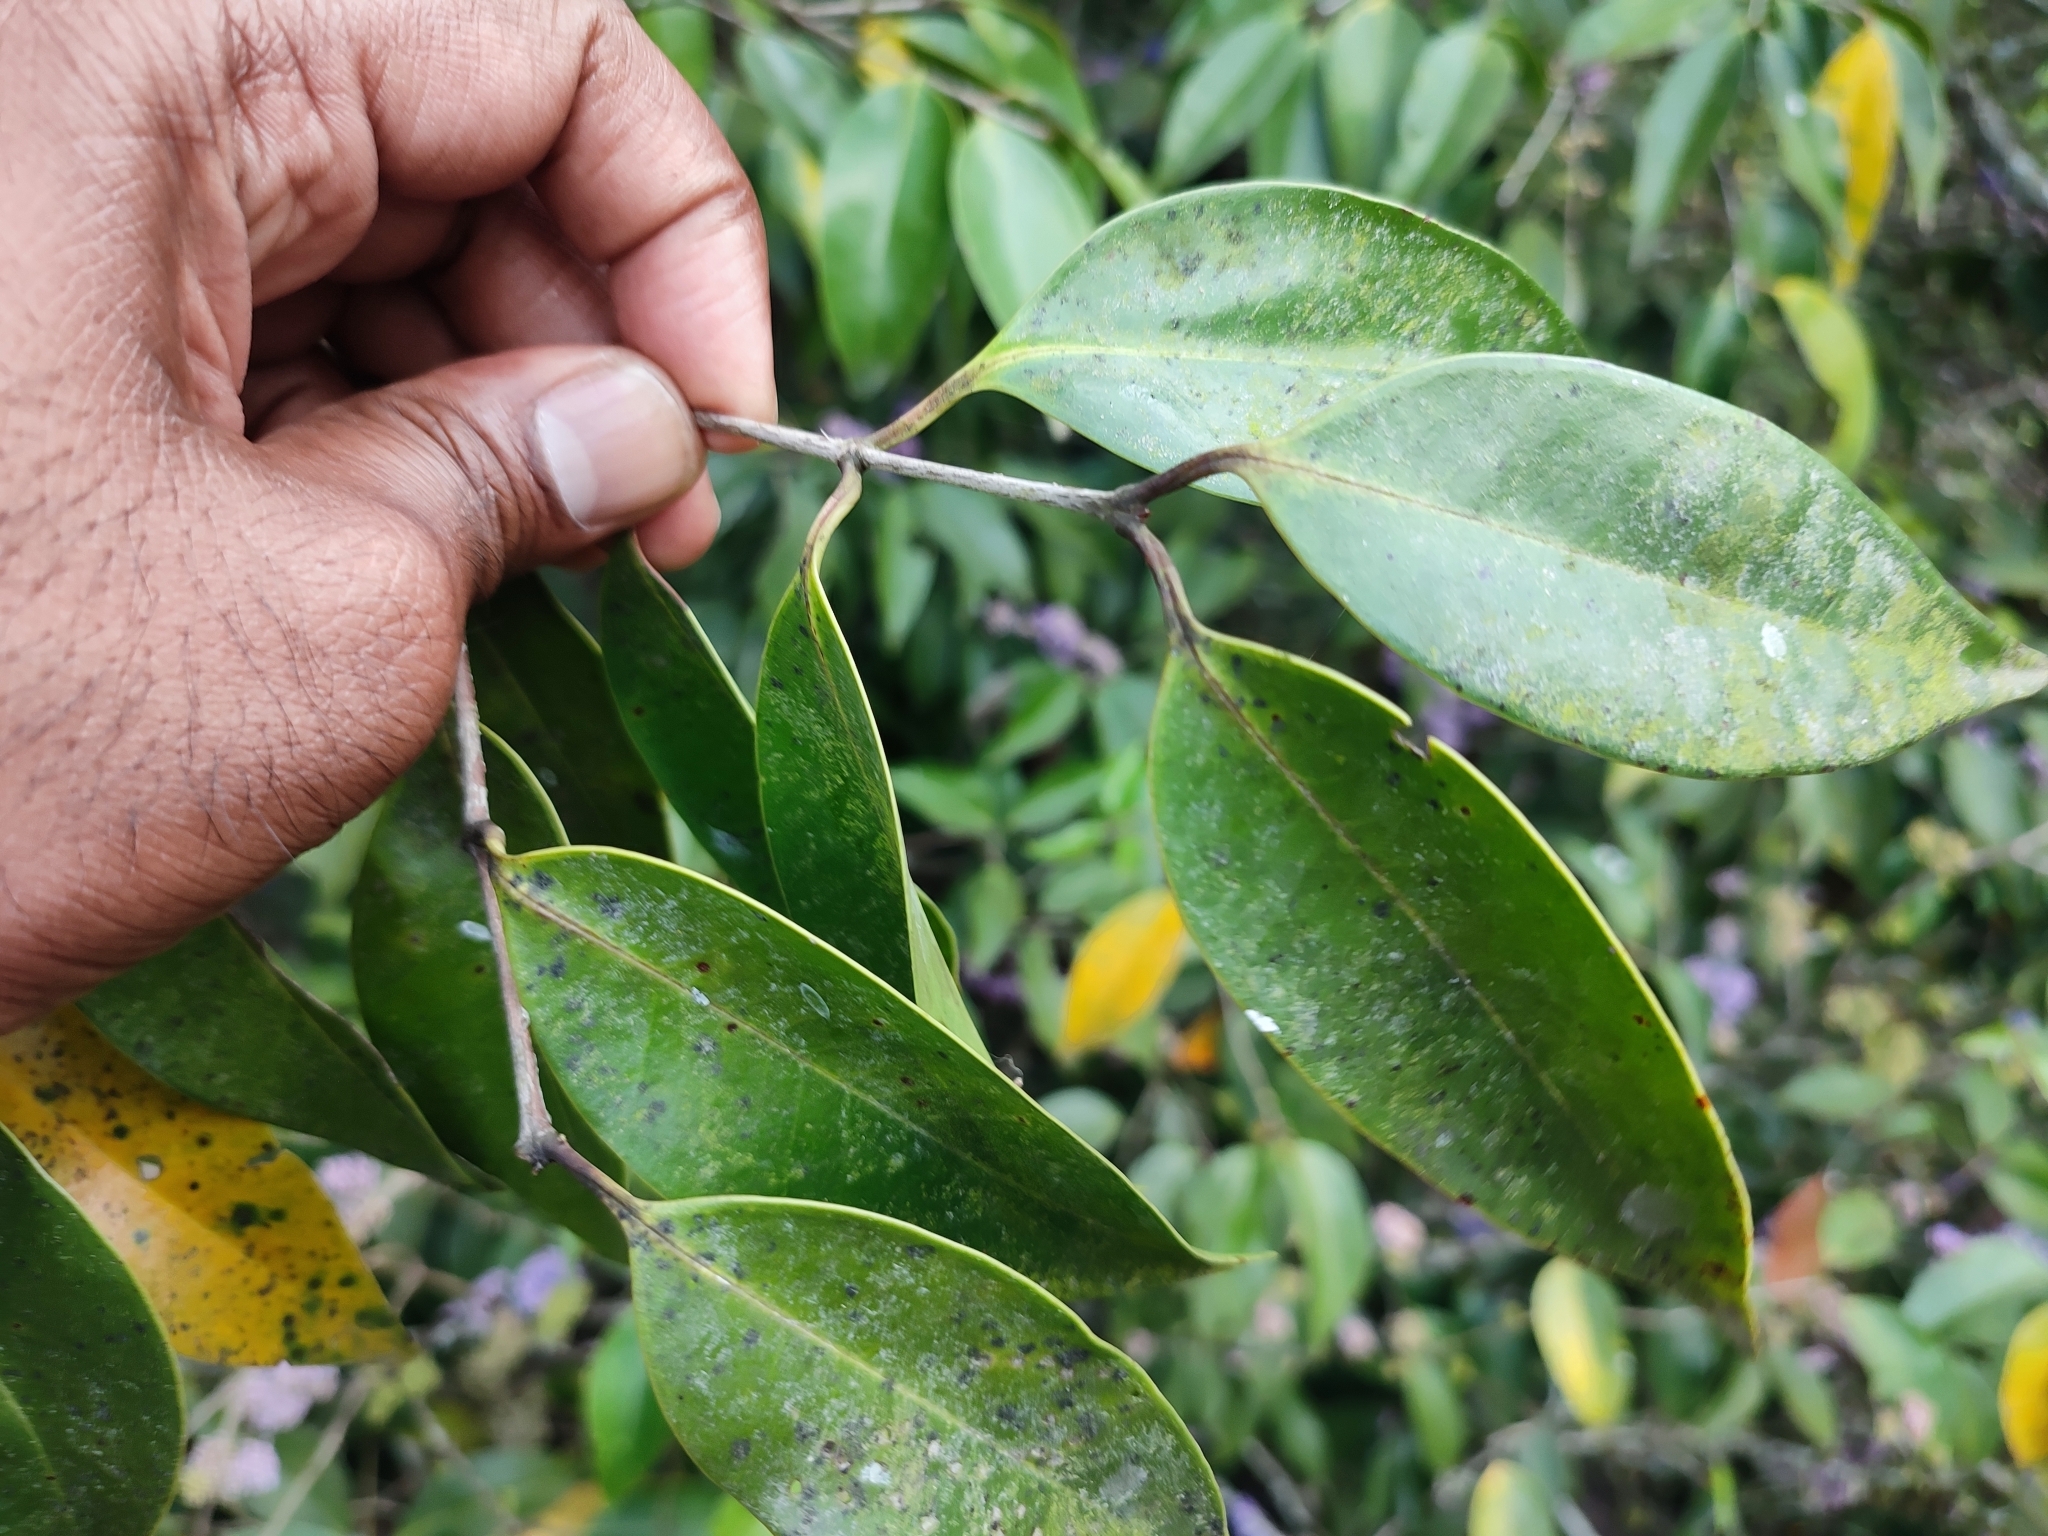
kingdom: Plantae
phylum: Tracheophyta
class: Magnoliopsida
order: Myrtales
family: Melastomataceae
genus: Memecylon
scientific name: Memecylon umbellatum
